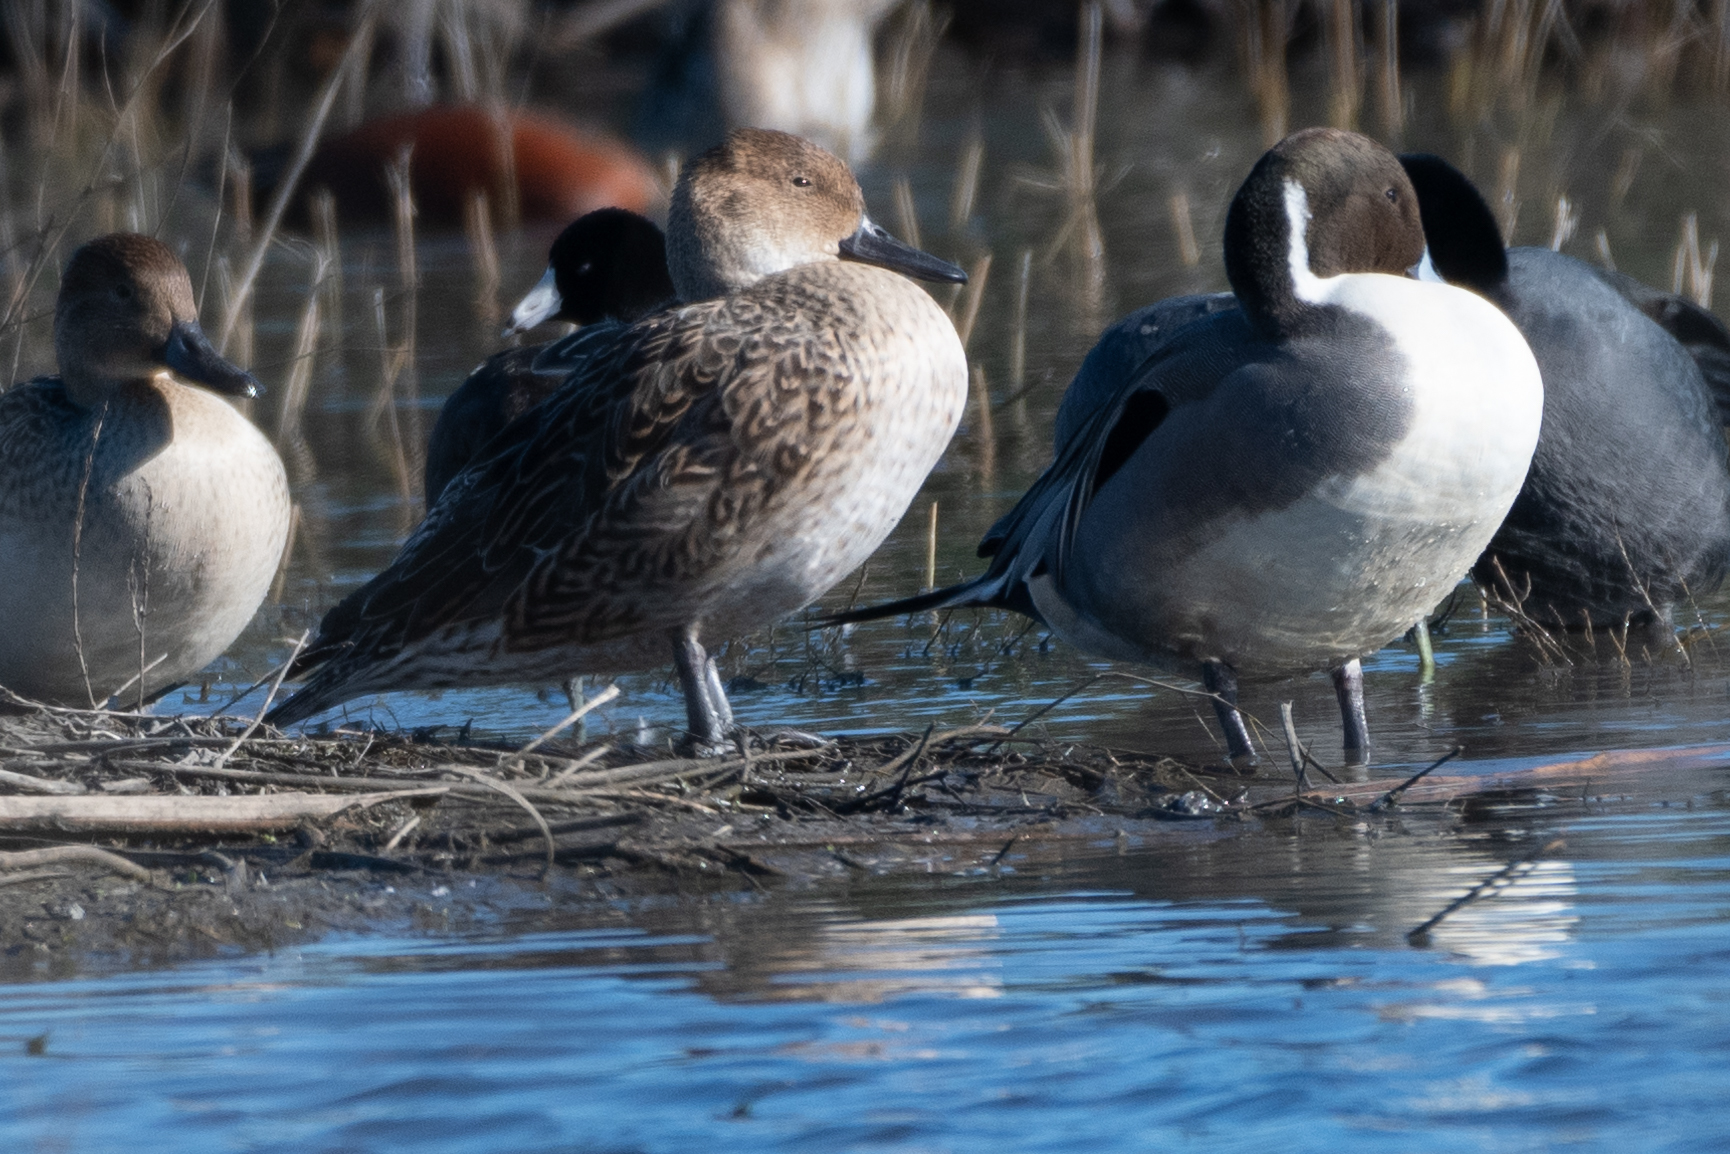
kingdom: Animalia
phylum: Chordata
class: Aves
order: Anseriformes
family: Anatidae
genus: Anas
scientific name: Anas acuta
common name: Northern pintail
